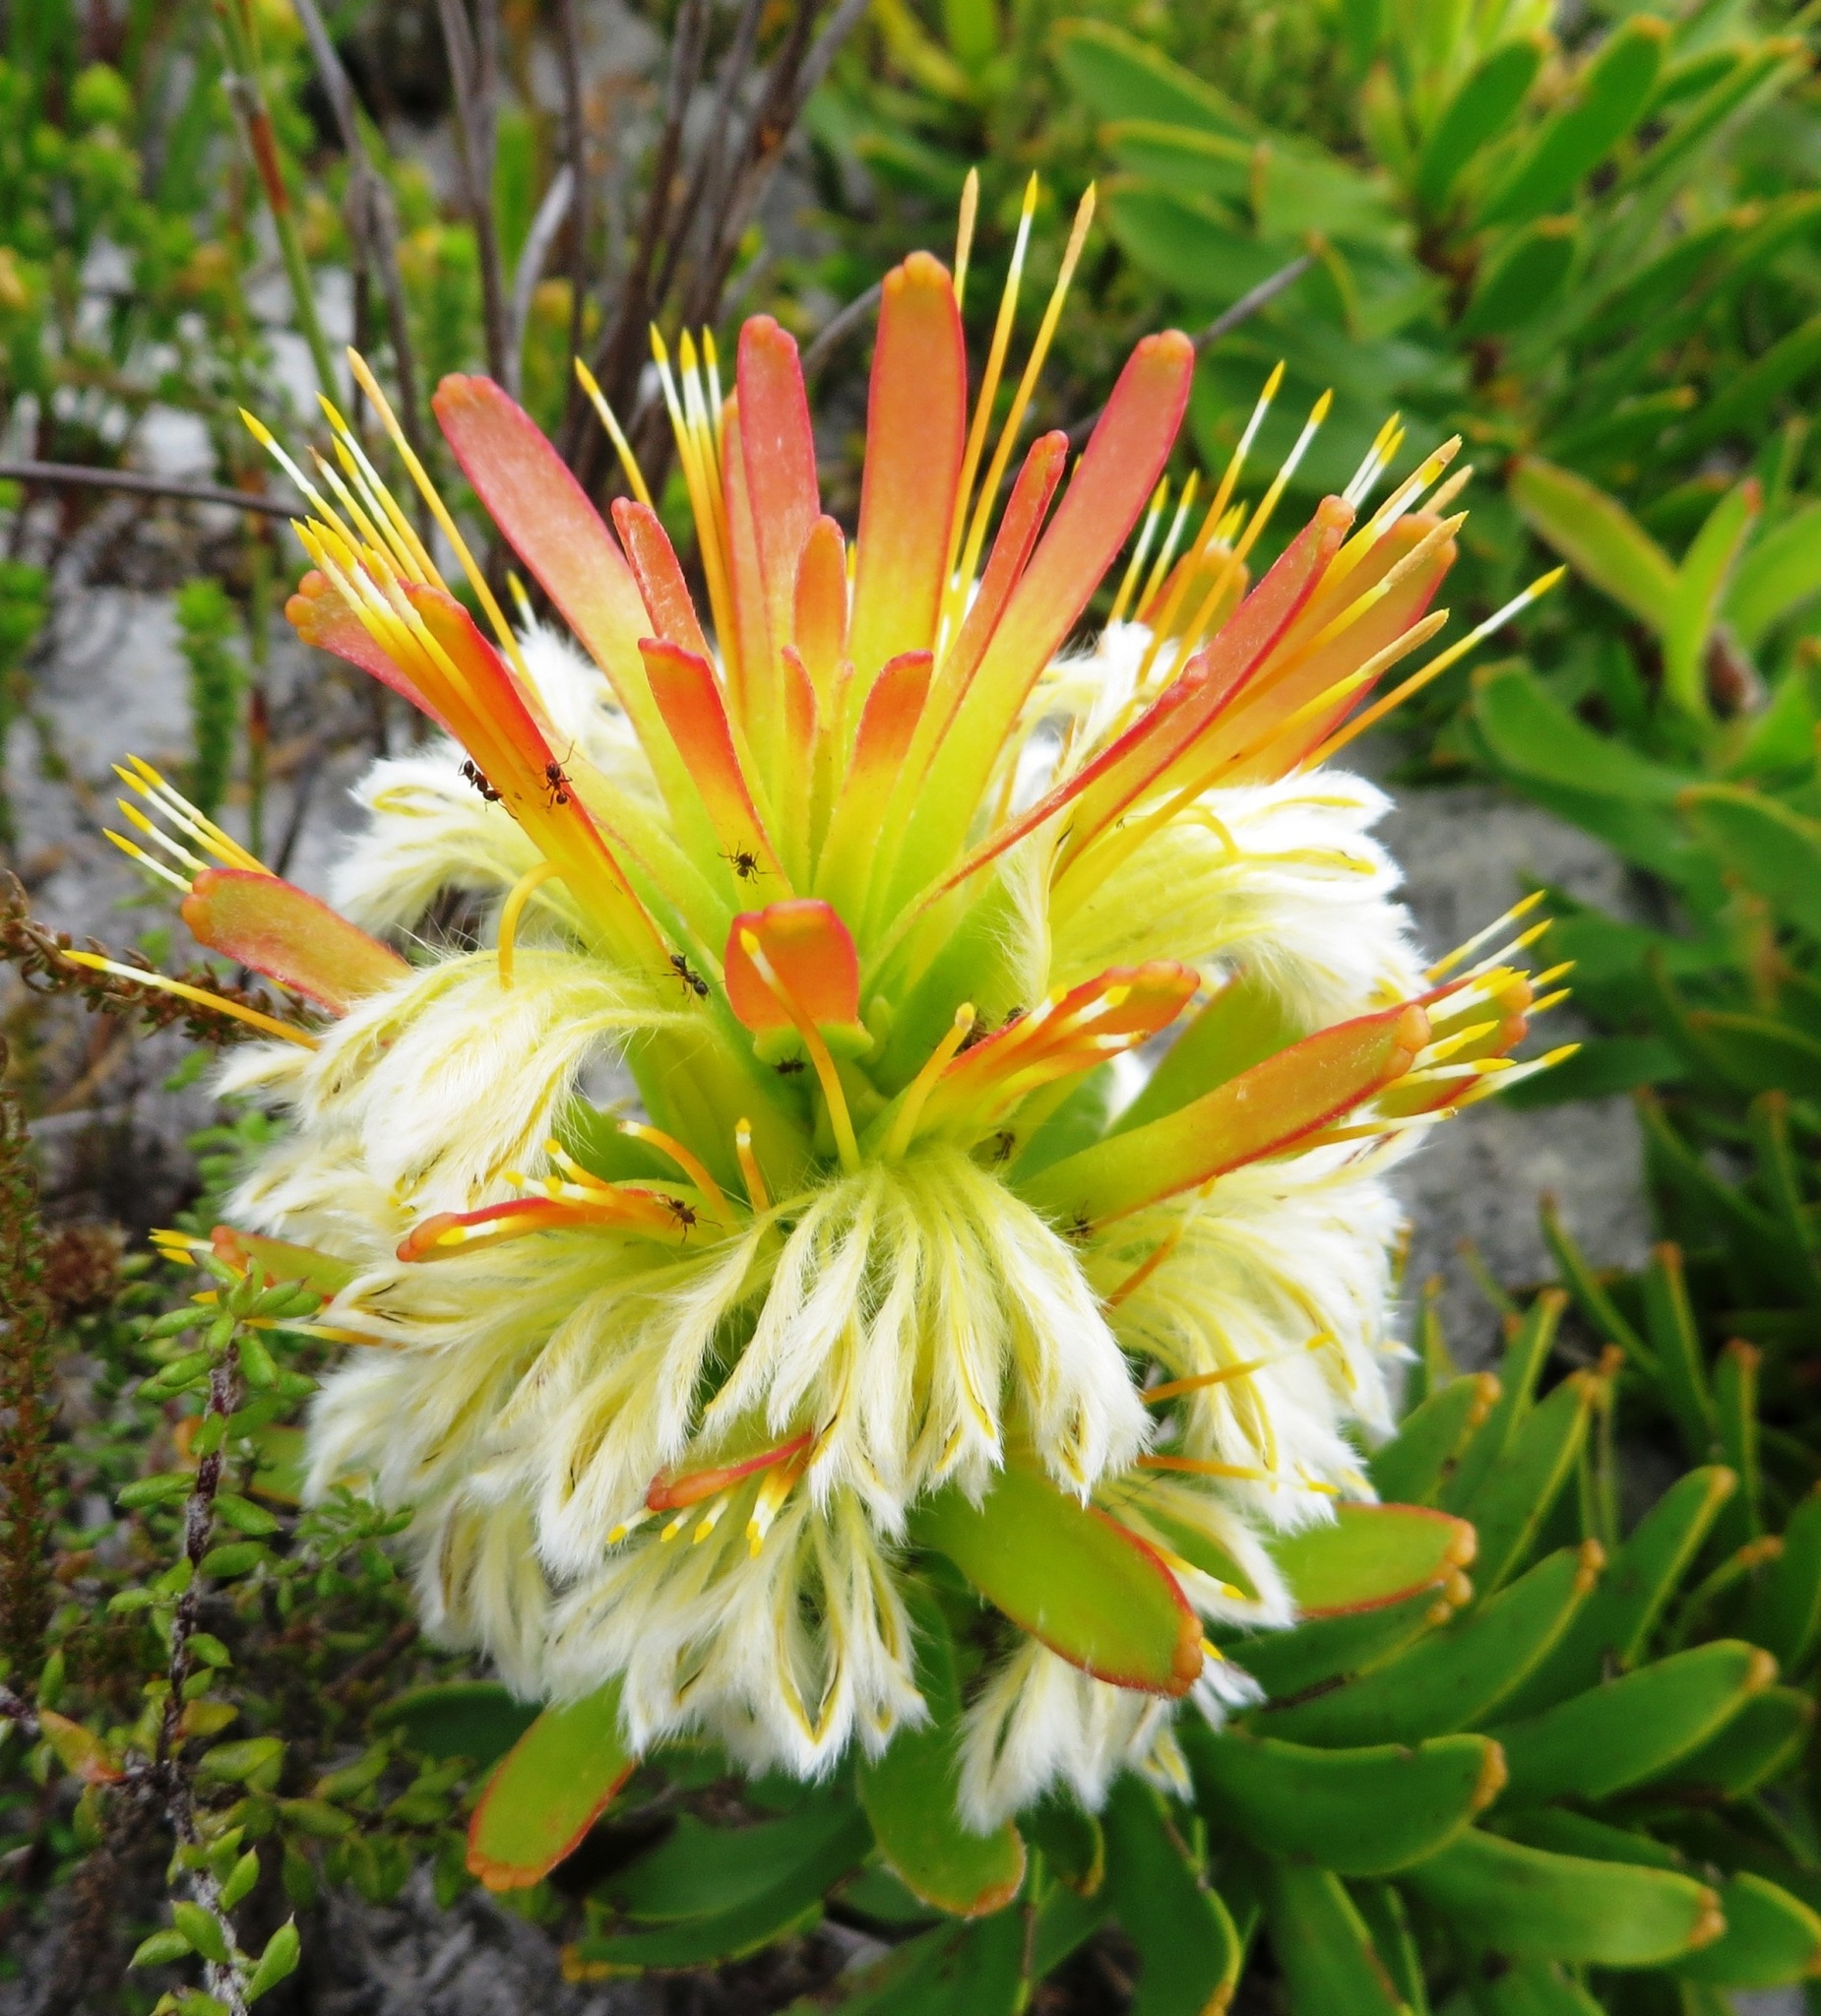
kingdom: Plantae
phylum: Tracheophyta
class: Magnoliopsida
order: Proteales
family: Proteaceae
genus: Mimetes
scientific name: Mimetes cucullatus
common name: Common pagoda
